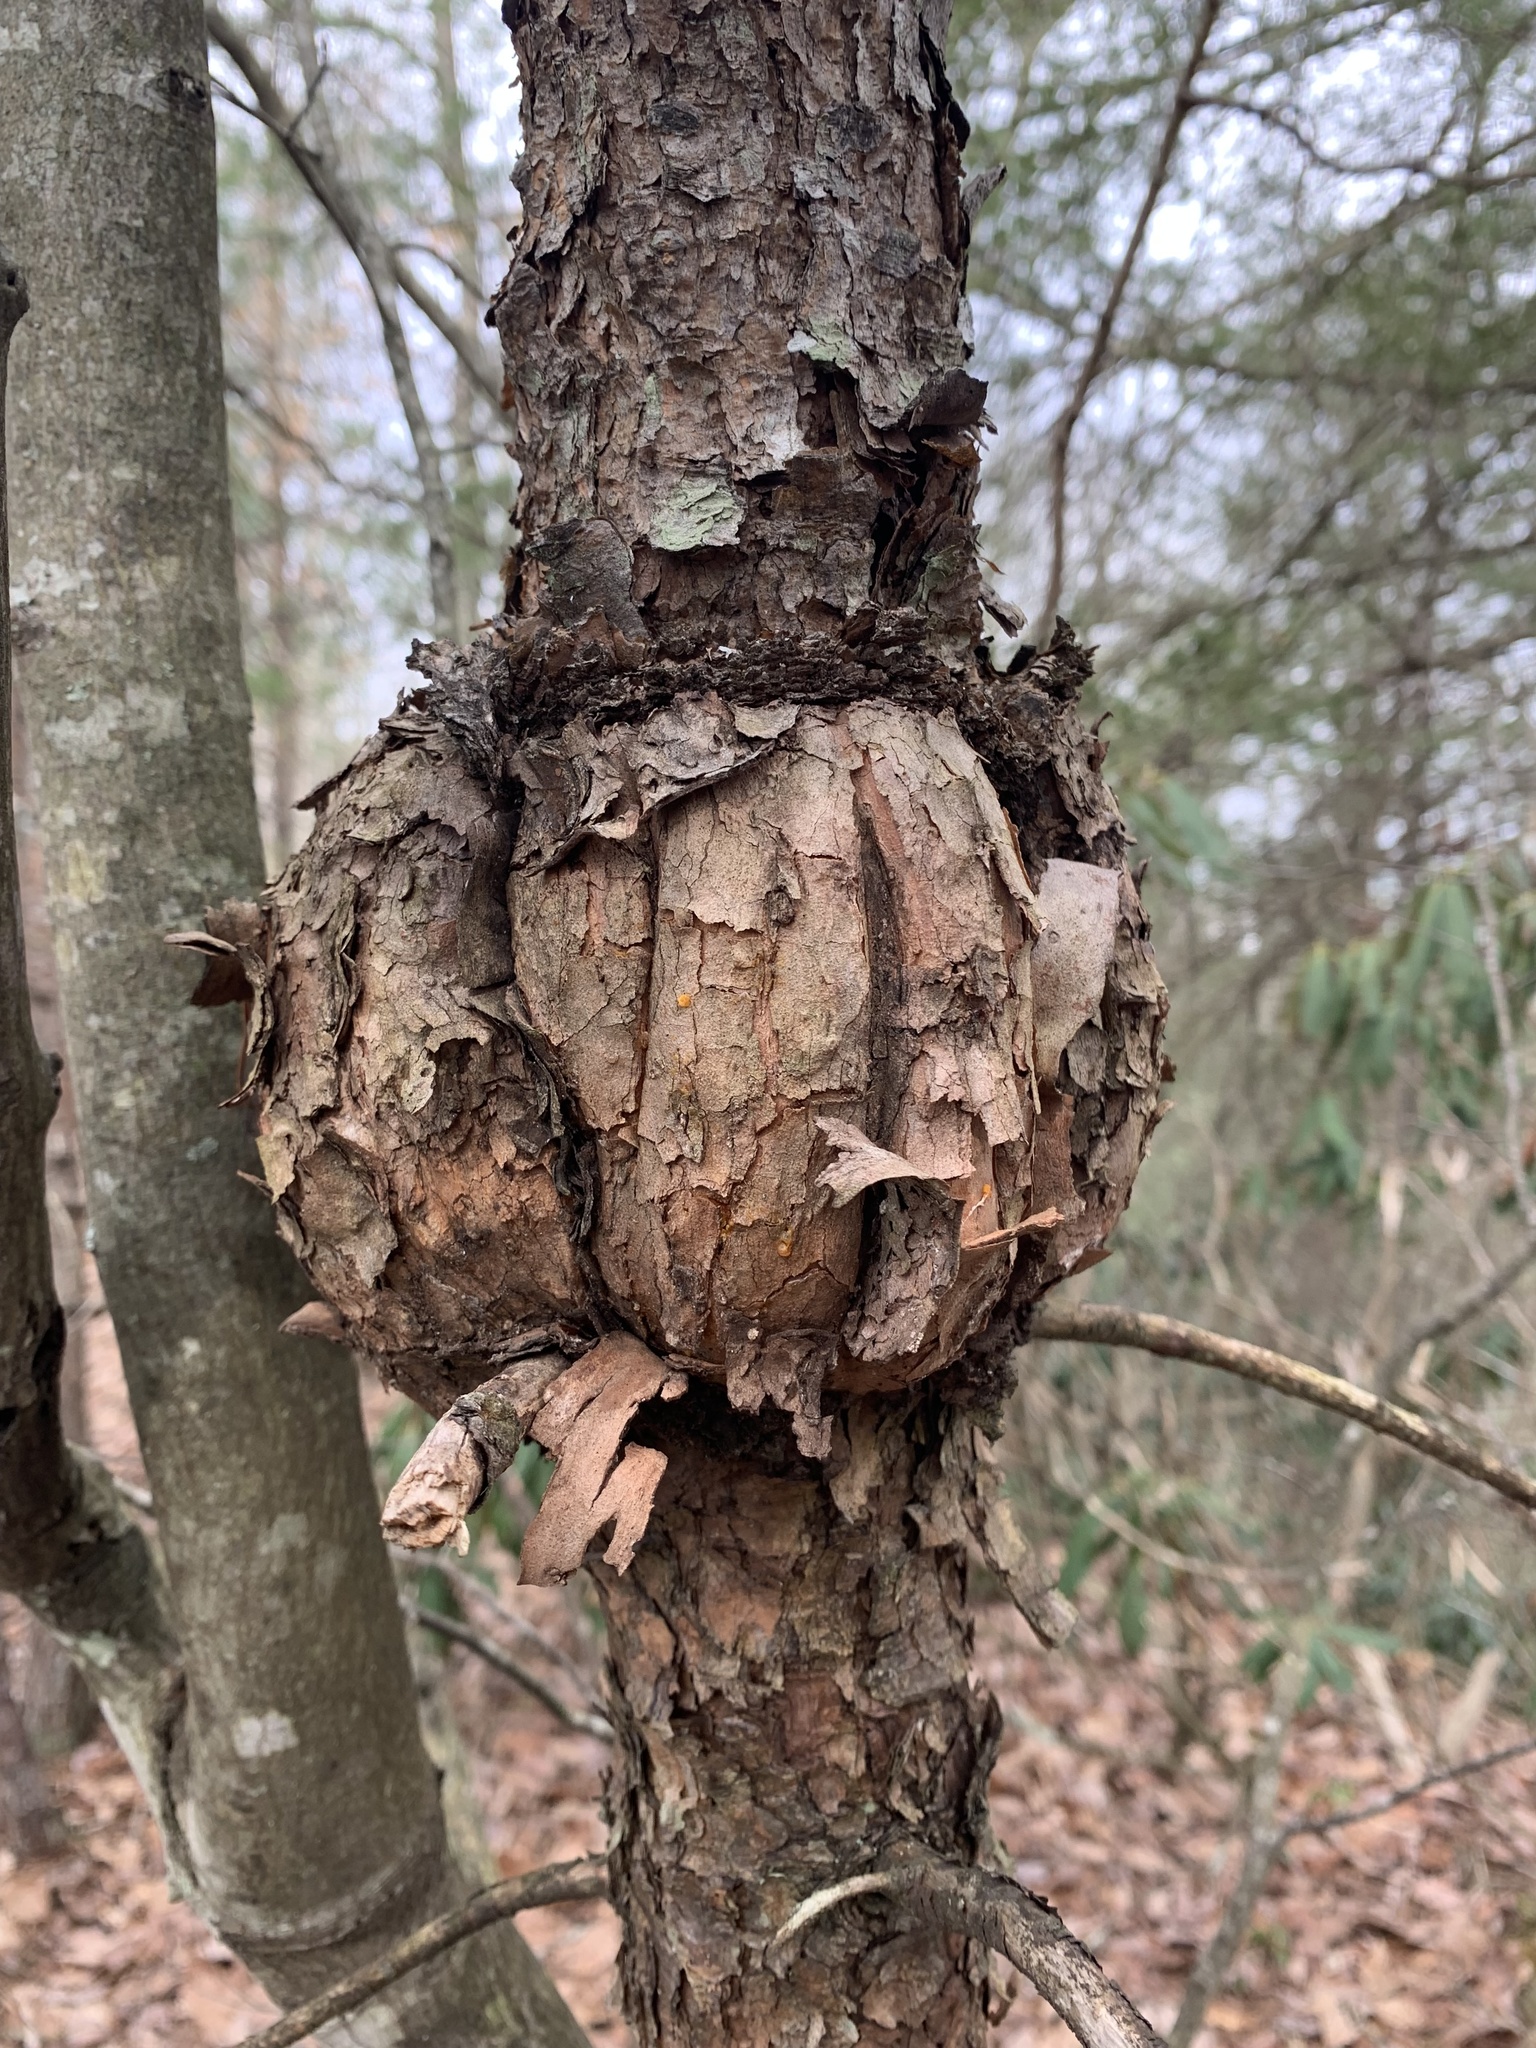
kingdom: Fungi
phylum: Basidiomycota
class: Pucciniomycetes
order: Pucciniales
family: Cronartiaceae
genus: Cronartium
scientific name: Cronartium quercuum
